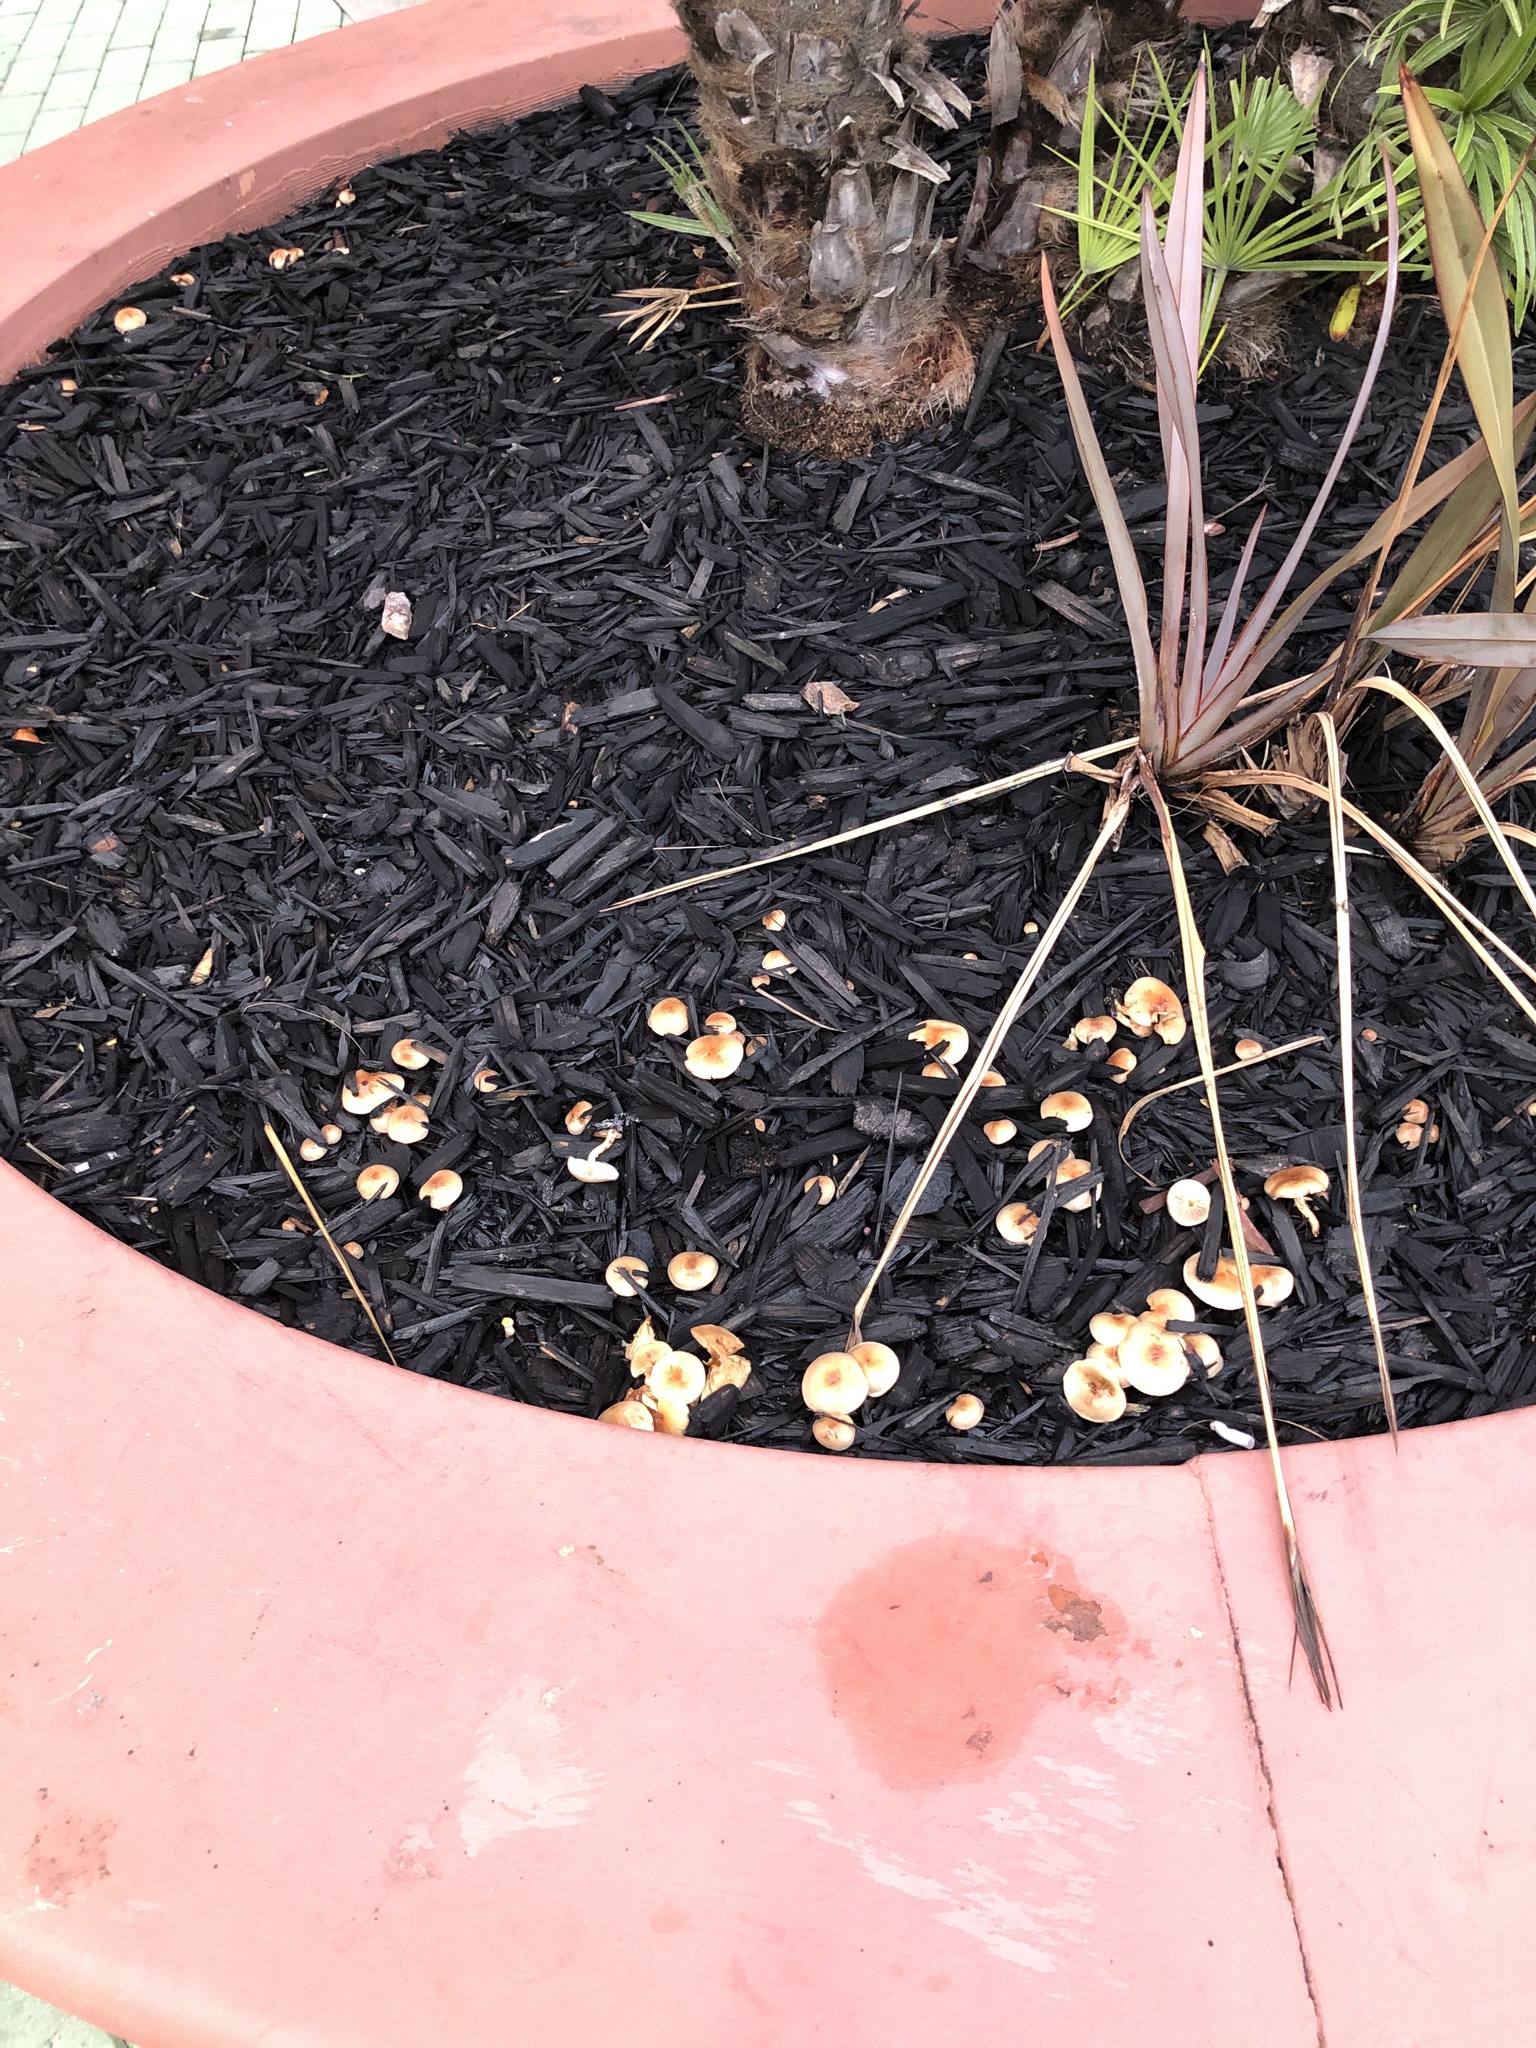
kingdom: Fungi
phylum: Basidiomycota
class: Agaricomycetes
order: Agaricales
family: Strophariaceae
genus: Pholiota
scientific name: Pholiota spumosa
